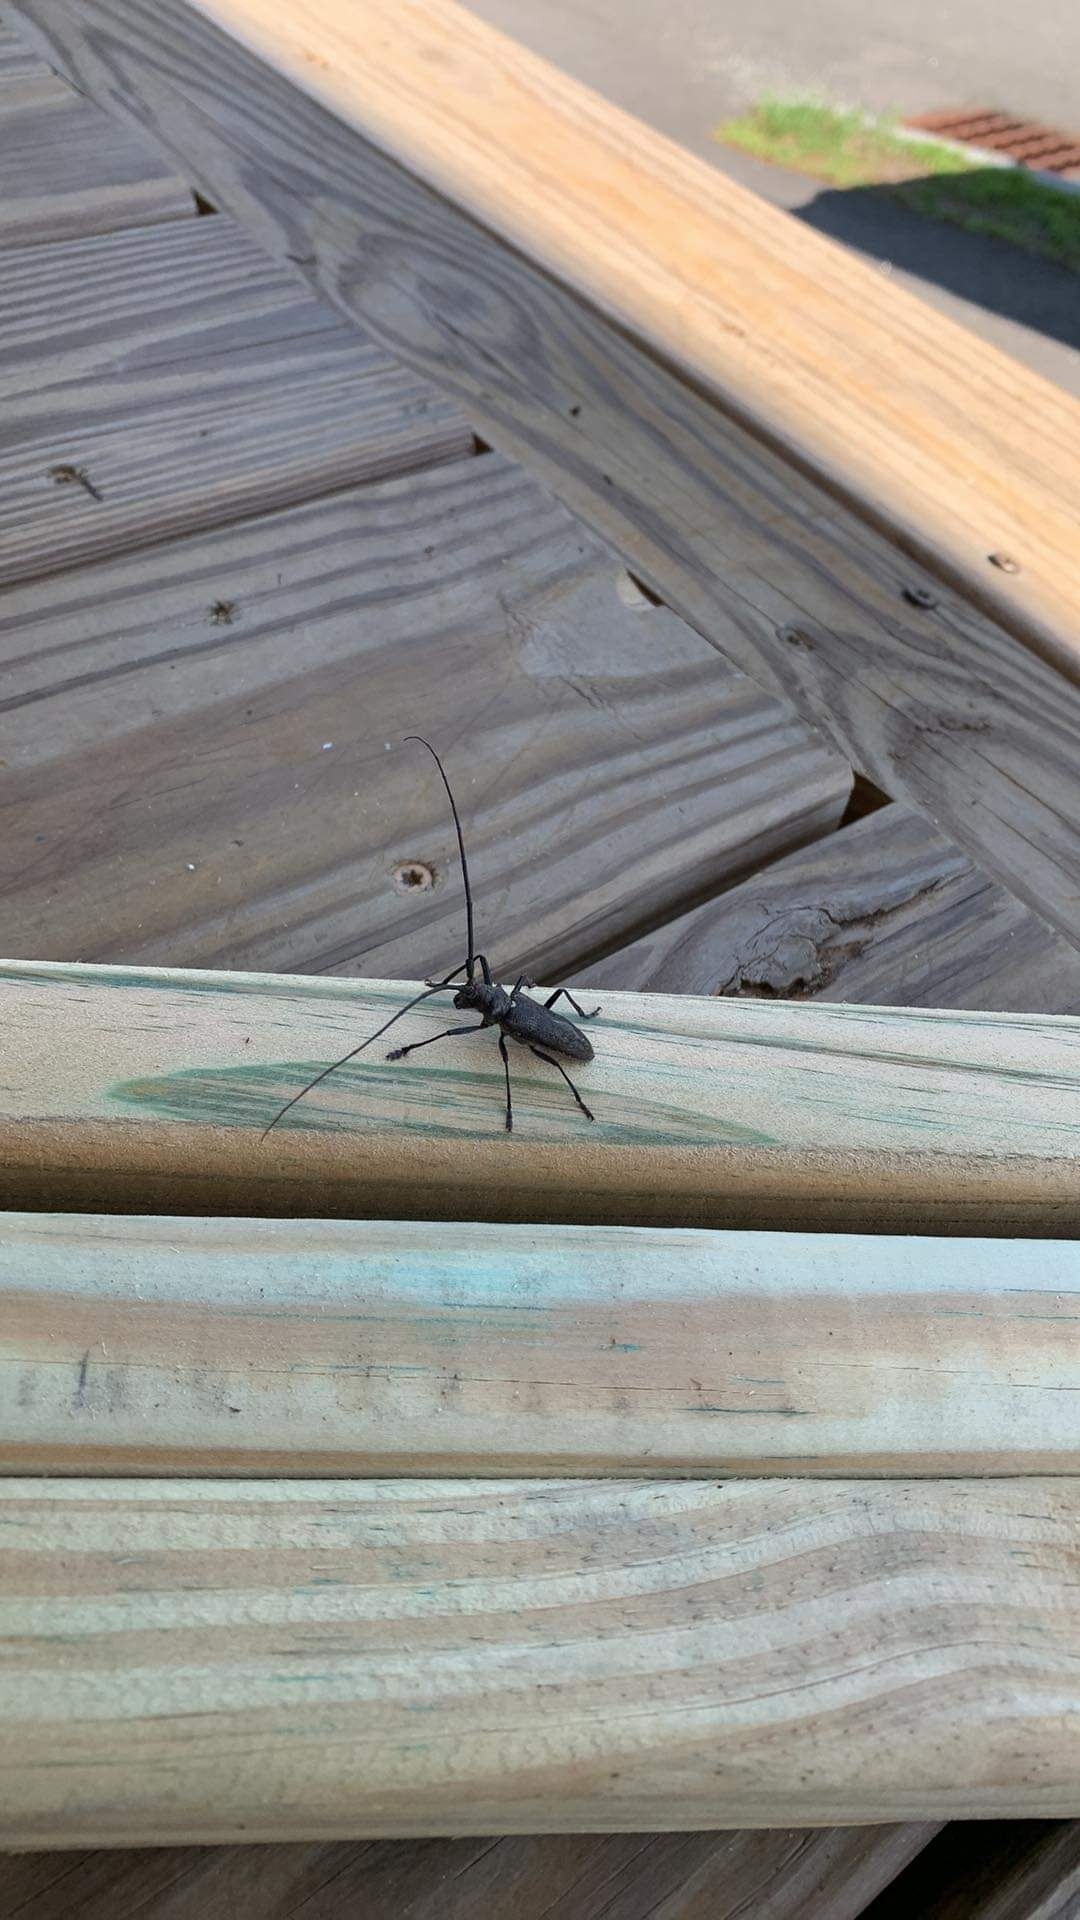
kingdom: Animalia
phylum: Arthropoda
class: Insecta
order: Coleoptera
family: Cerambycidae
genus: Monochamus
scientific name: Monochamus scutellatus
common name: White-spotted sawyer beetle
